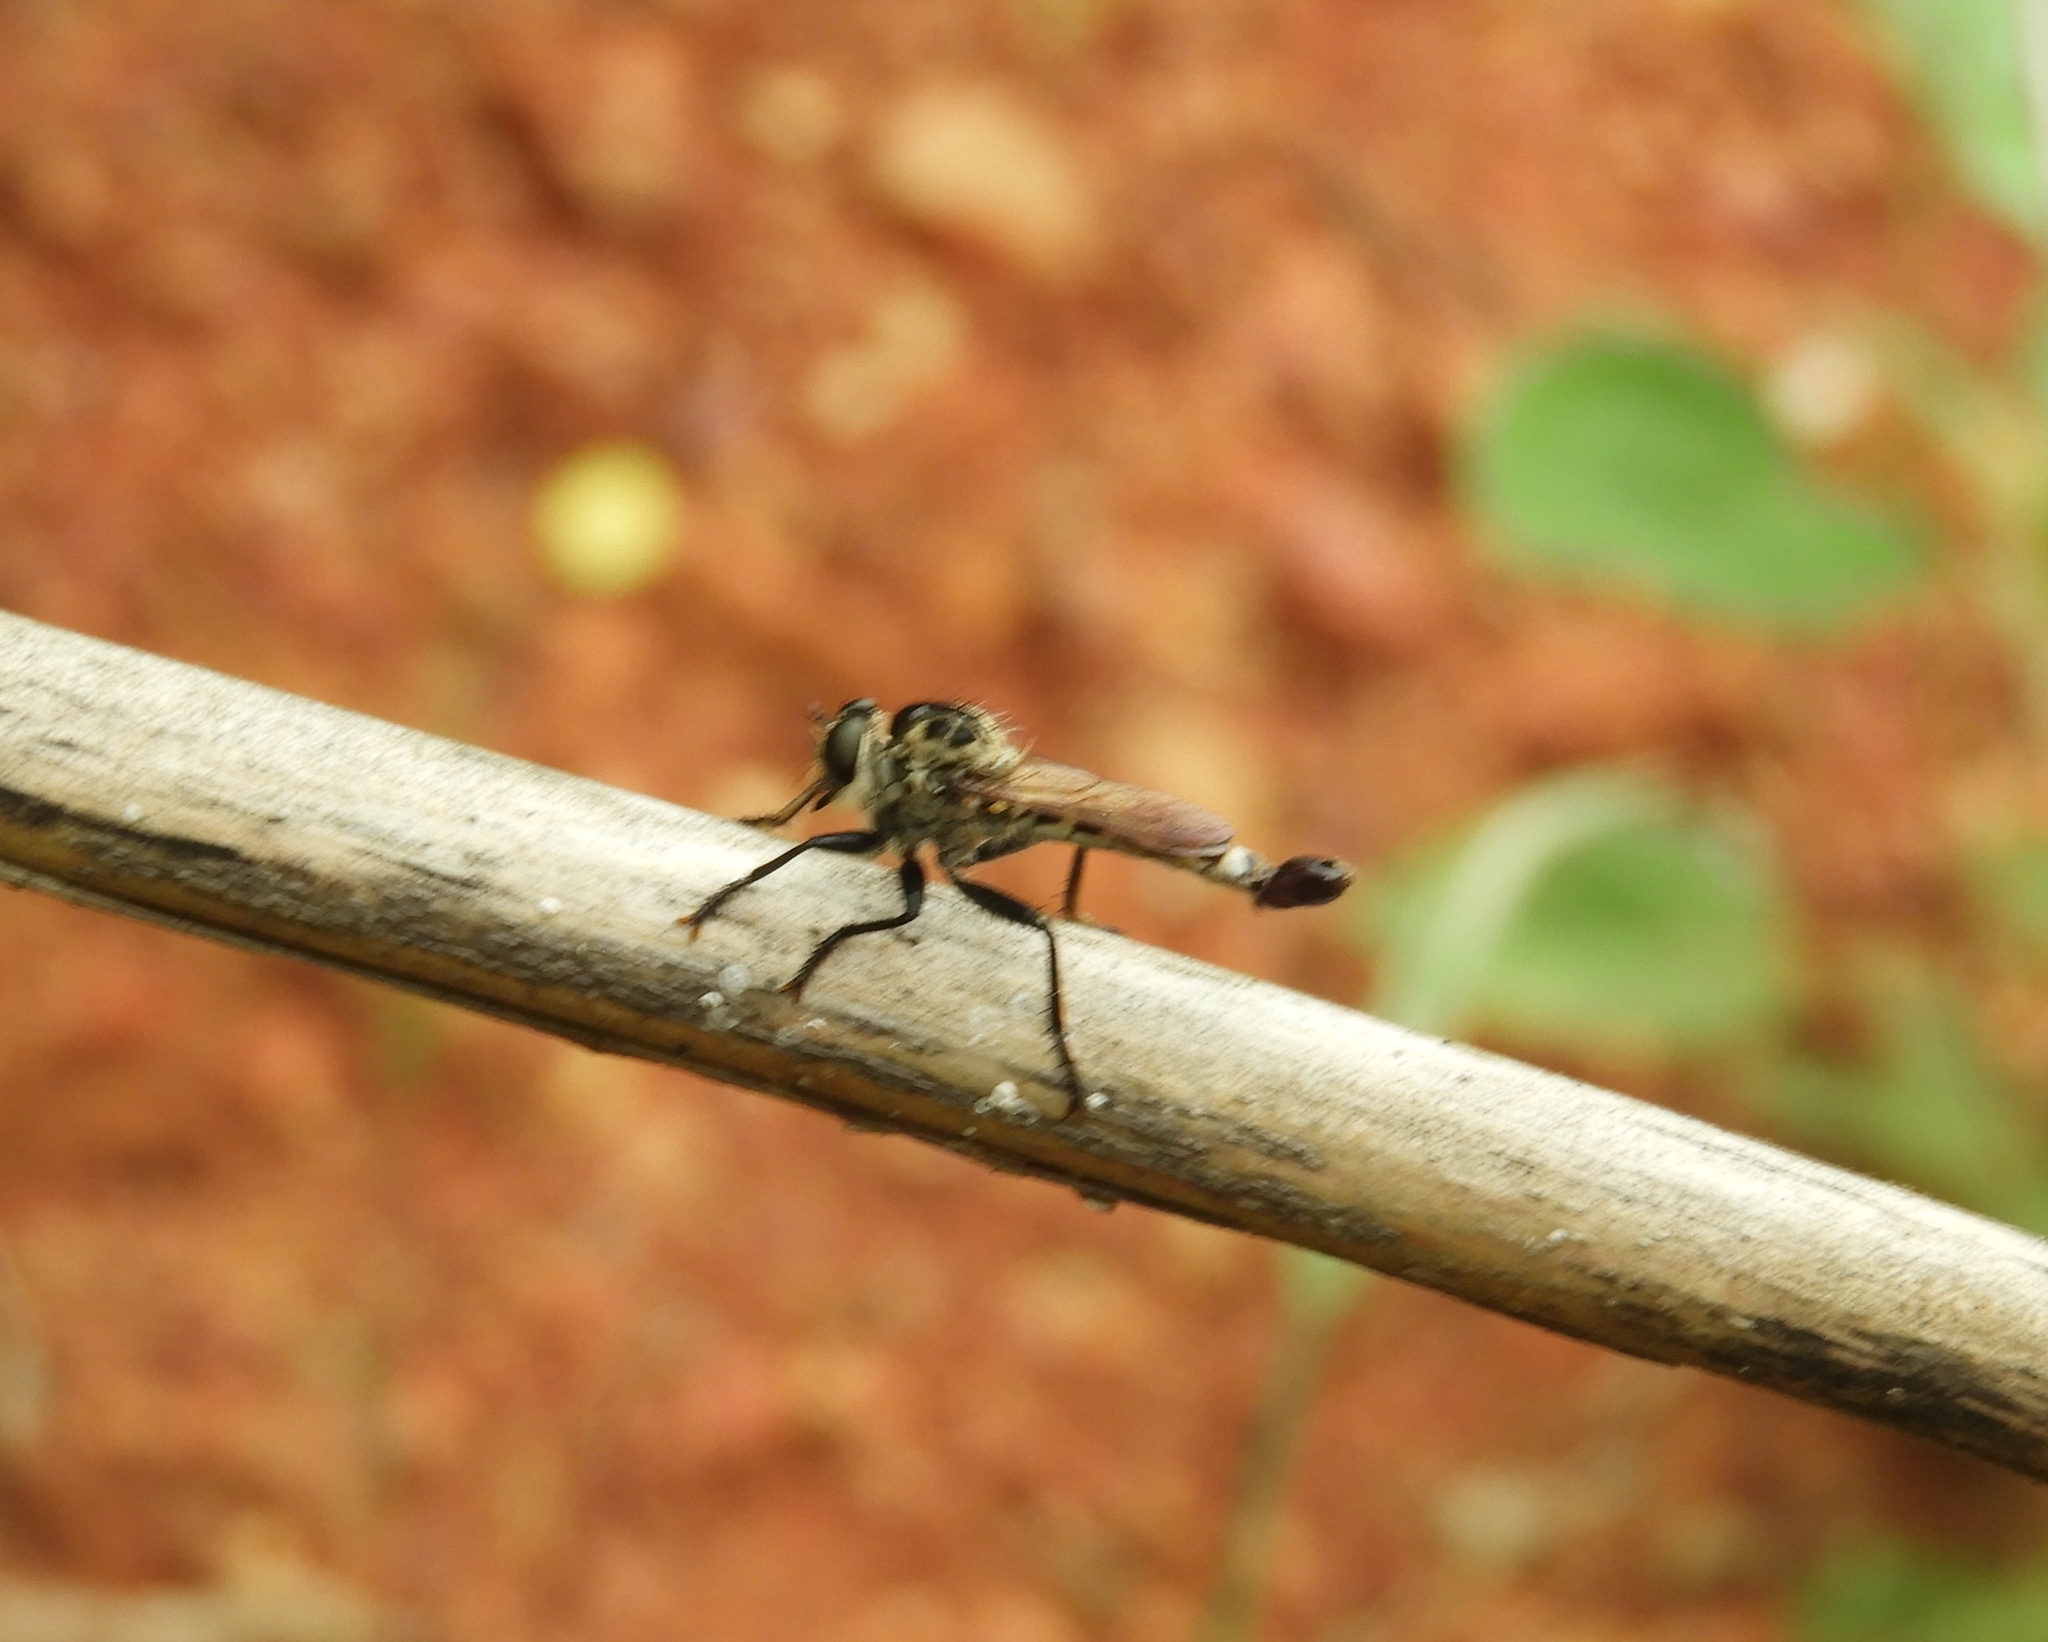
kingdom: Animalia
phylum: Arthropoda
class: Insecta
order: Diptera
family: Asilidae
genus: Efferia
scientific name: Efferia
